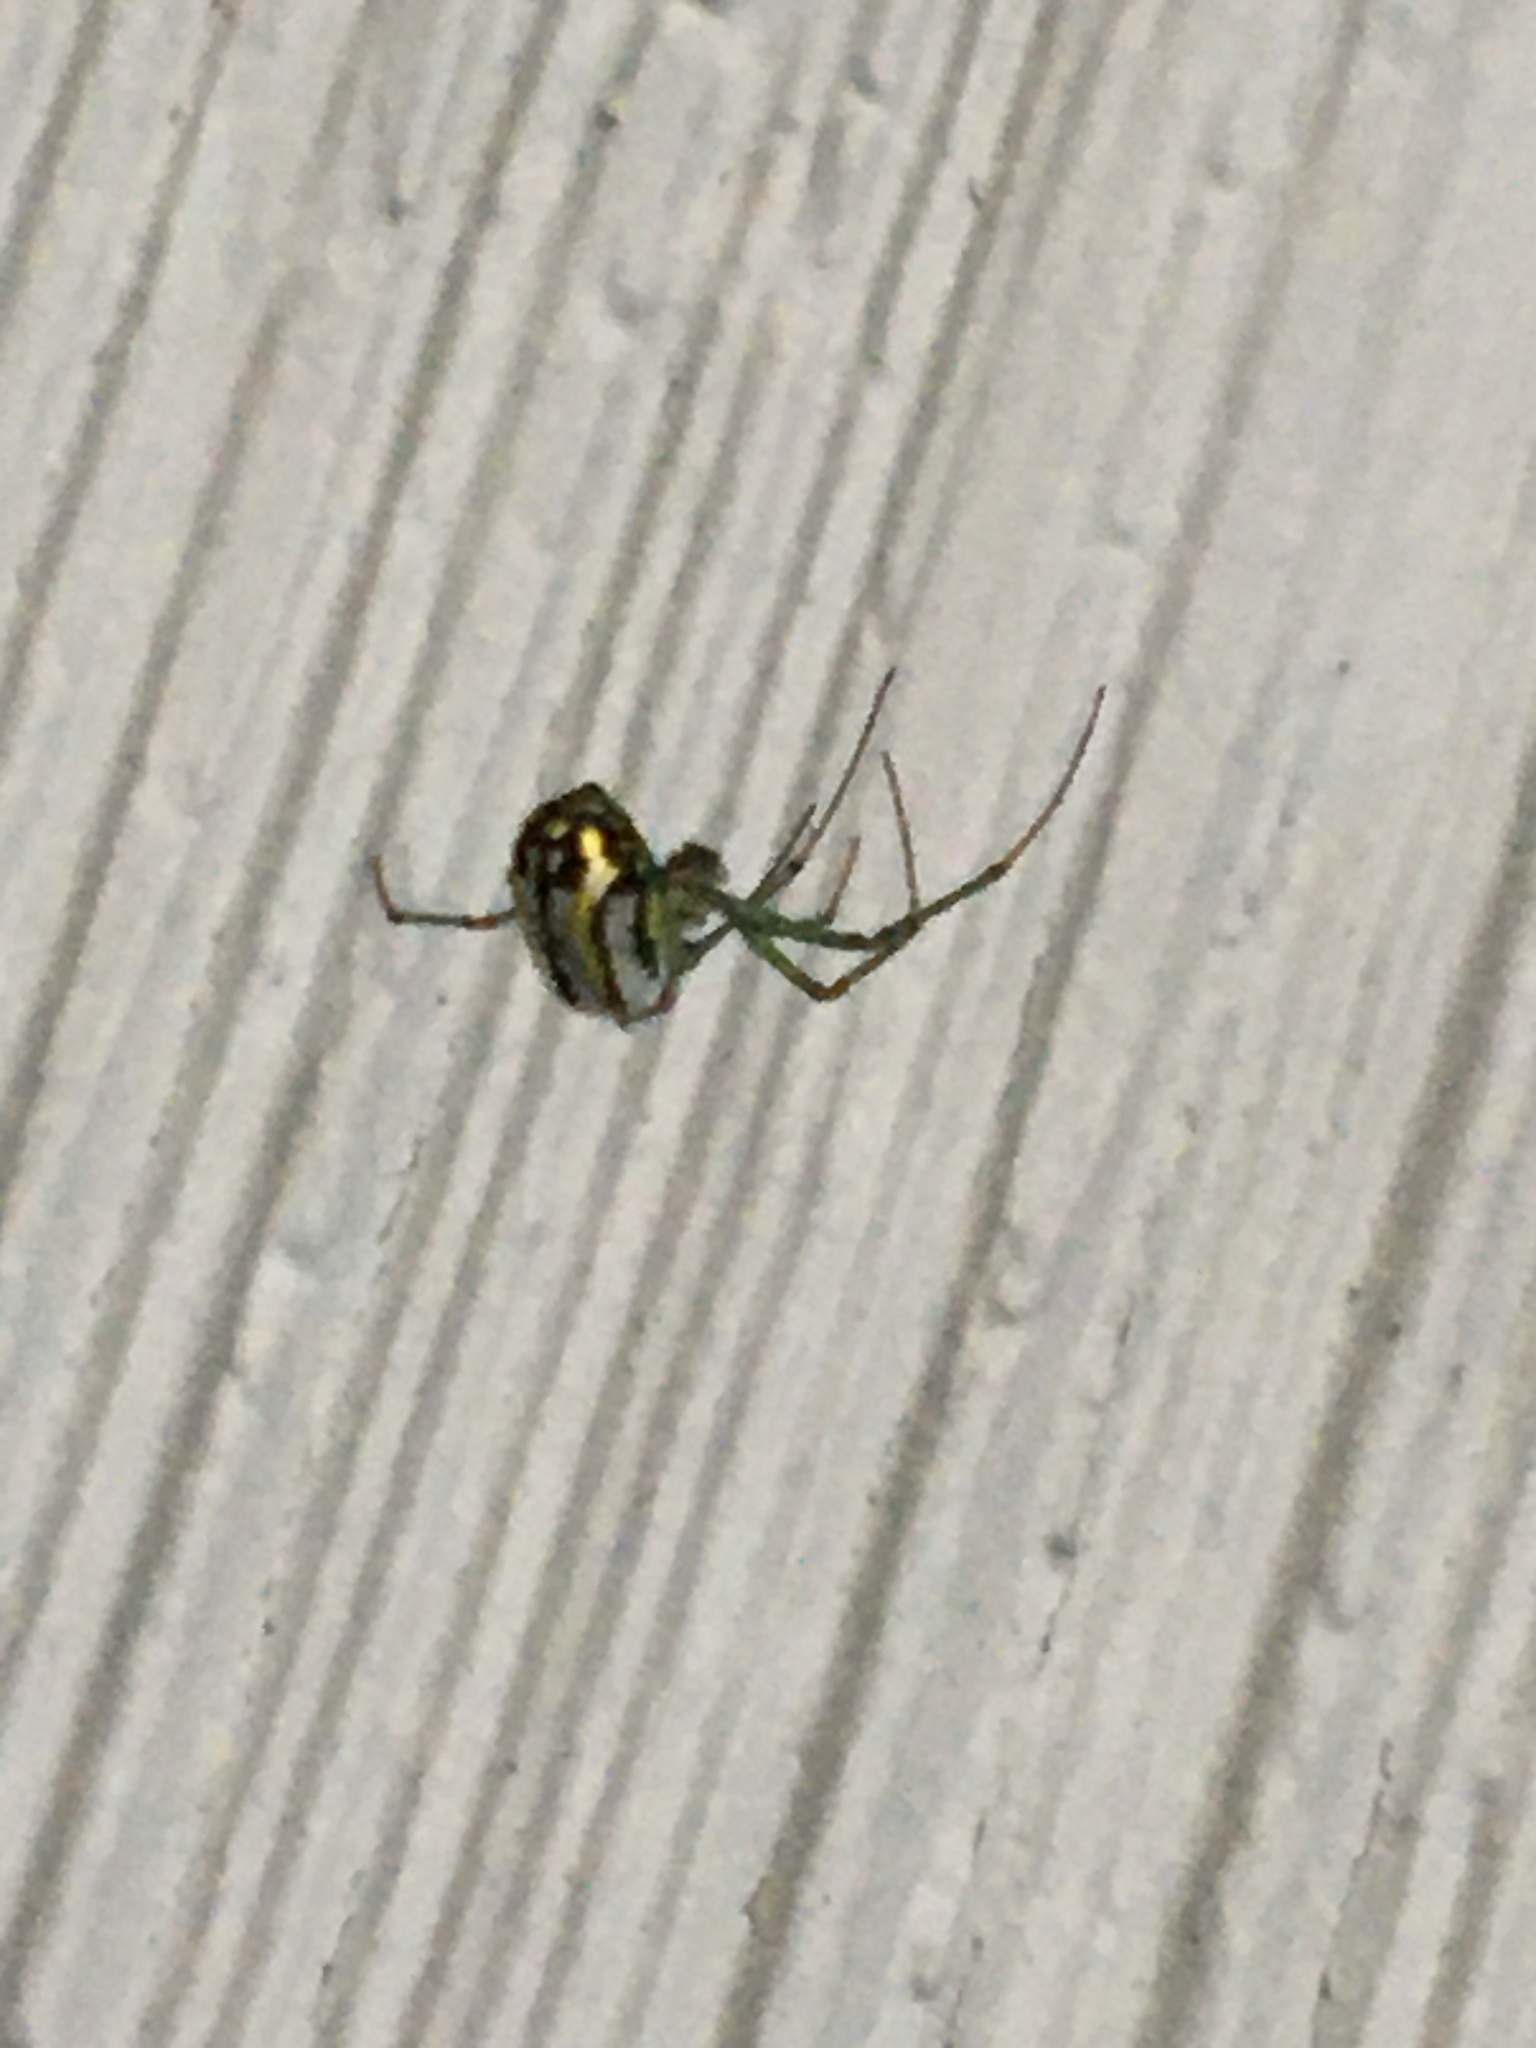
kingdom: Animalia
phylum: Arthropoda
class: Arachnida
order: Araneae
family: Tetragnathidae
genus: Leucauge
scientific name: Leucauge venusta
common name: Longjawed orb weavers
